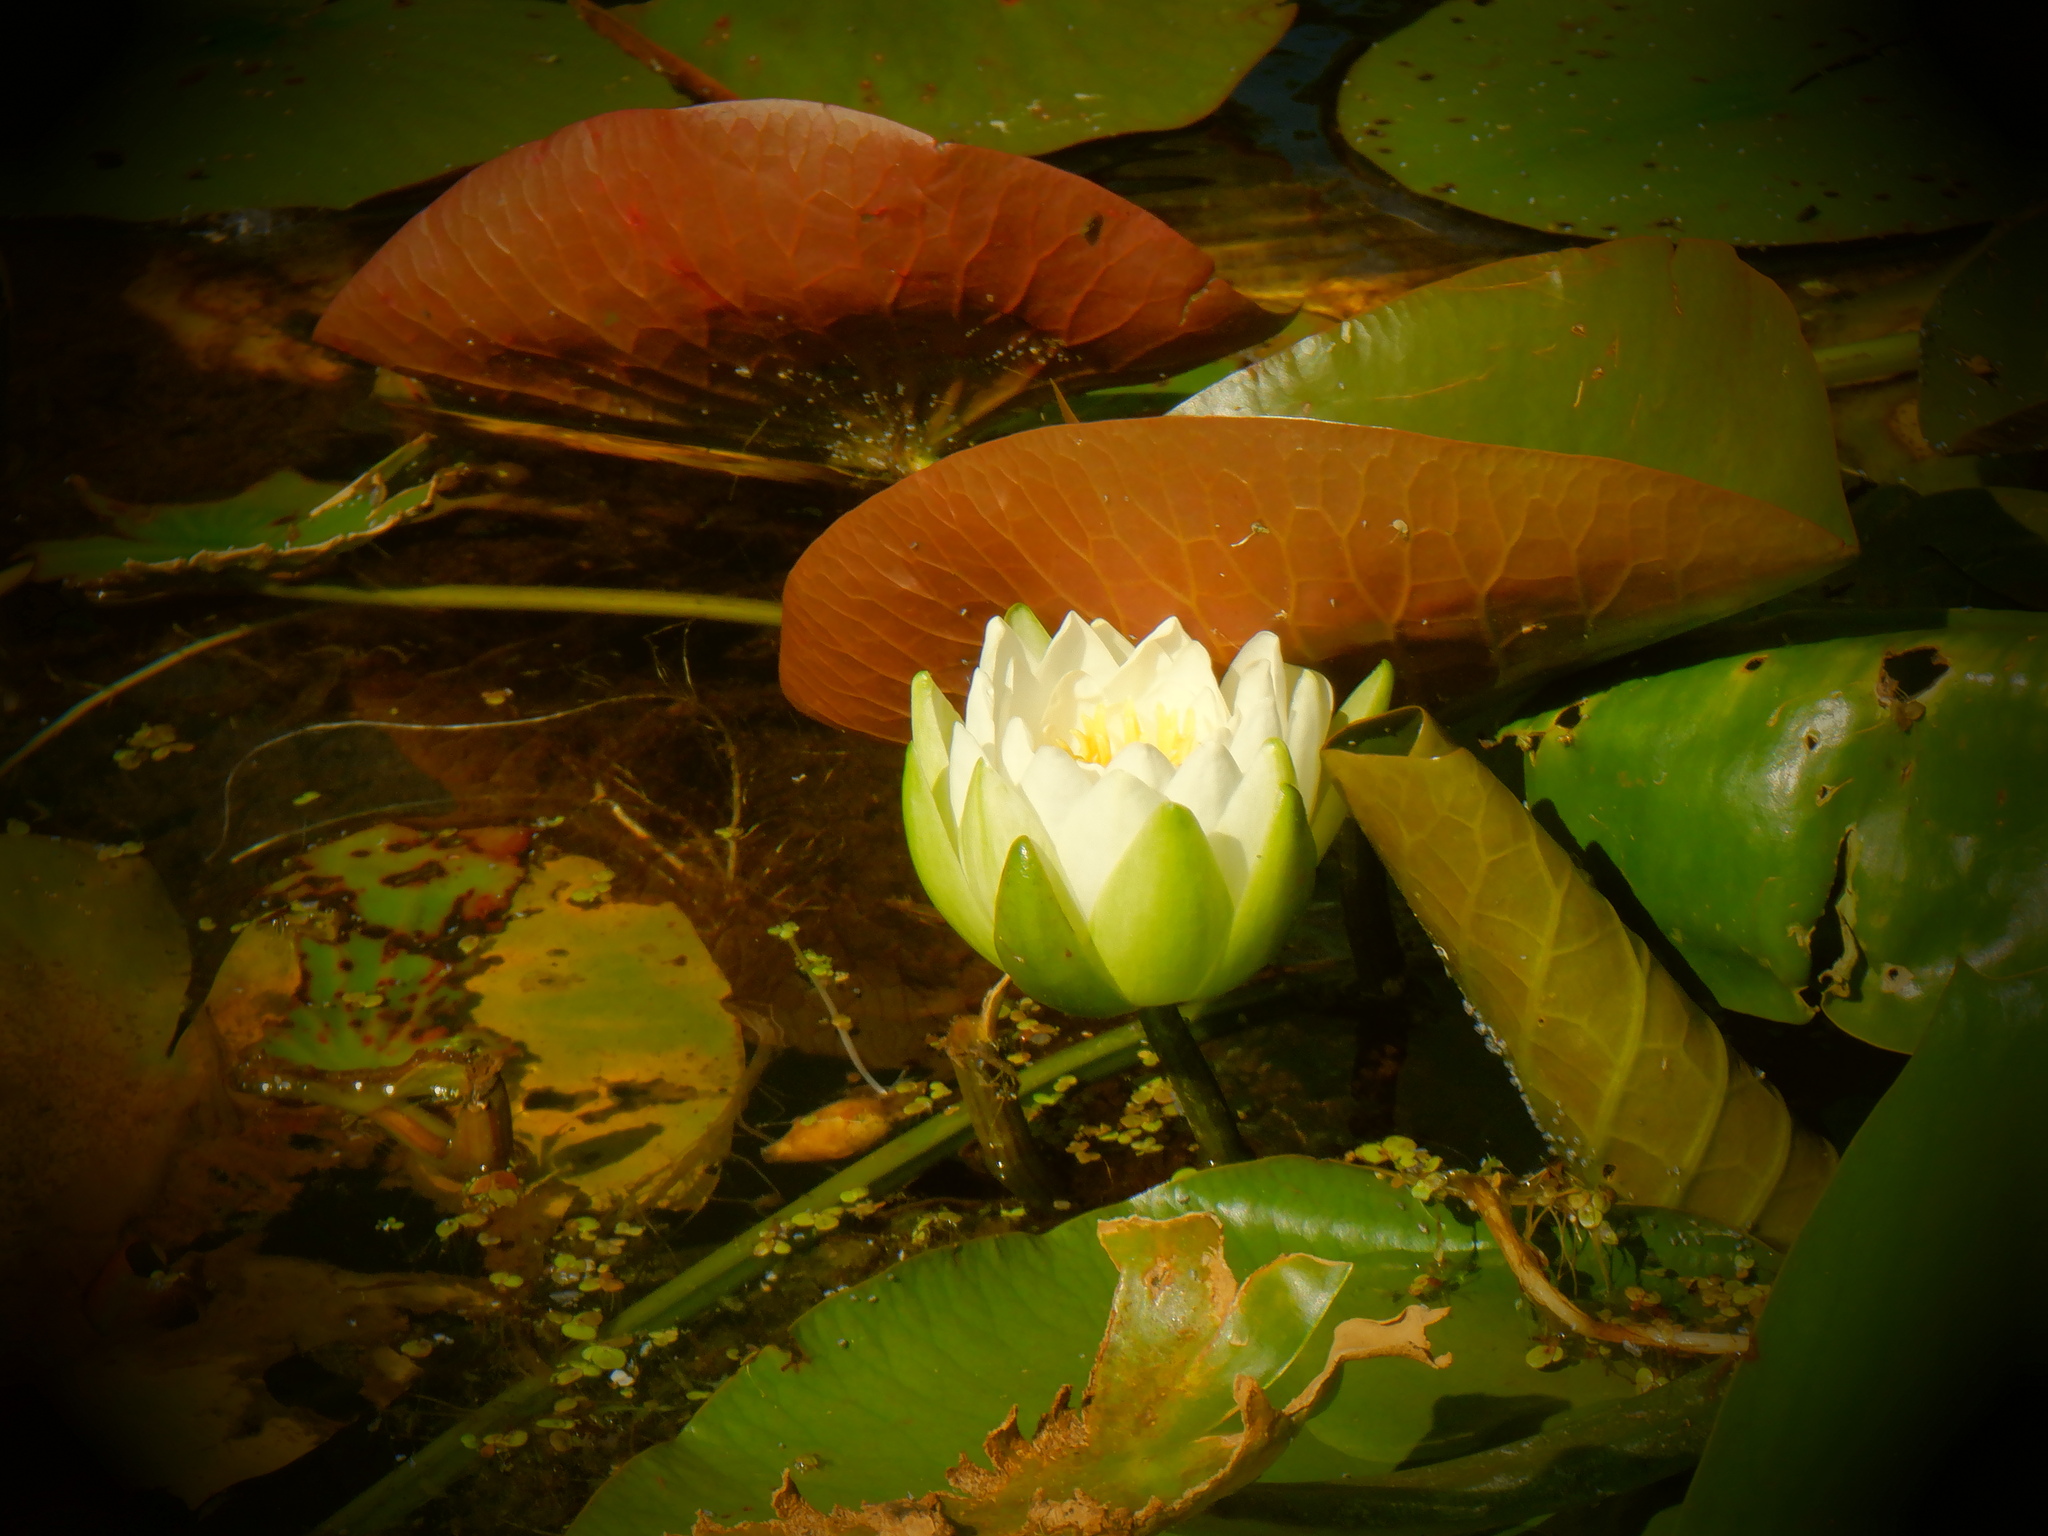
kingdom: Plantae
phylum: Tracheophyta
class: Magnoliopsida
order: Nymphaeales
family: Nymphaeaceae
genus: Nymphaea
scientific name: Nymphaea odorata
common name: Fragrant water-lily
